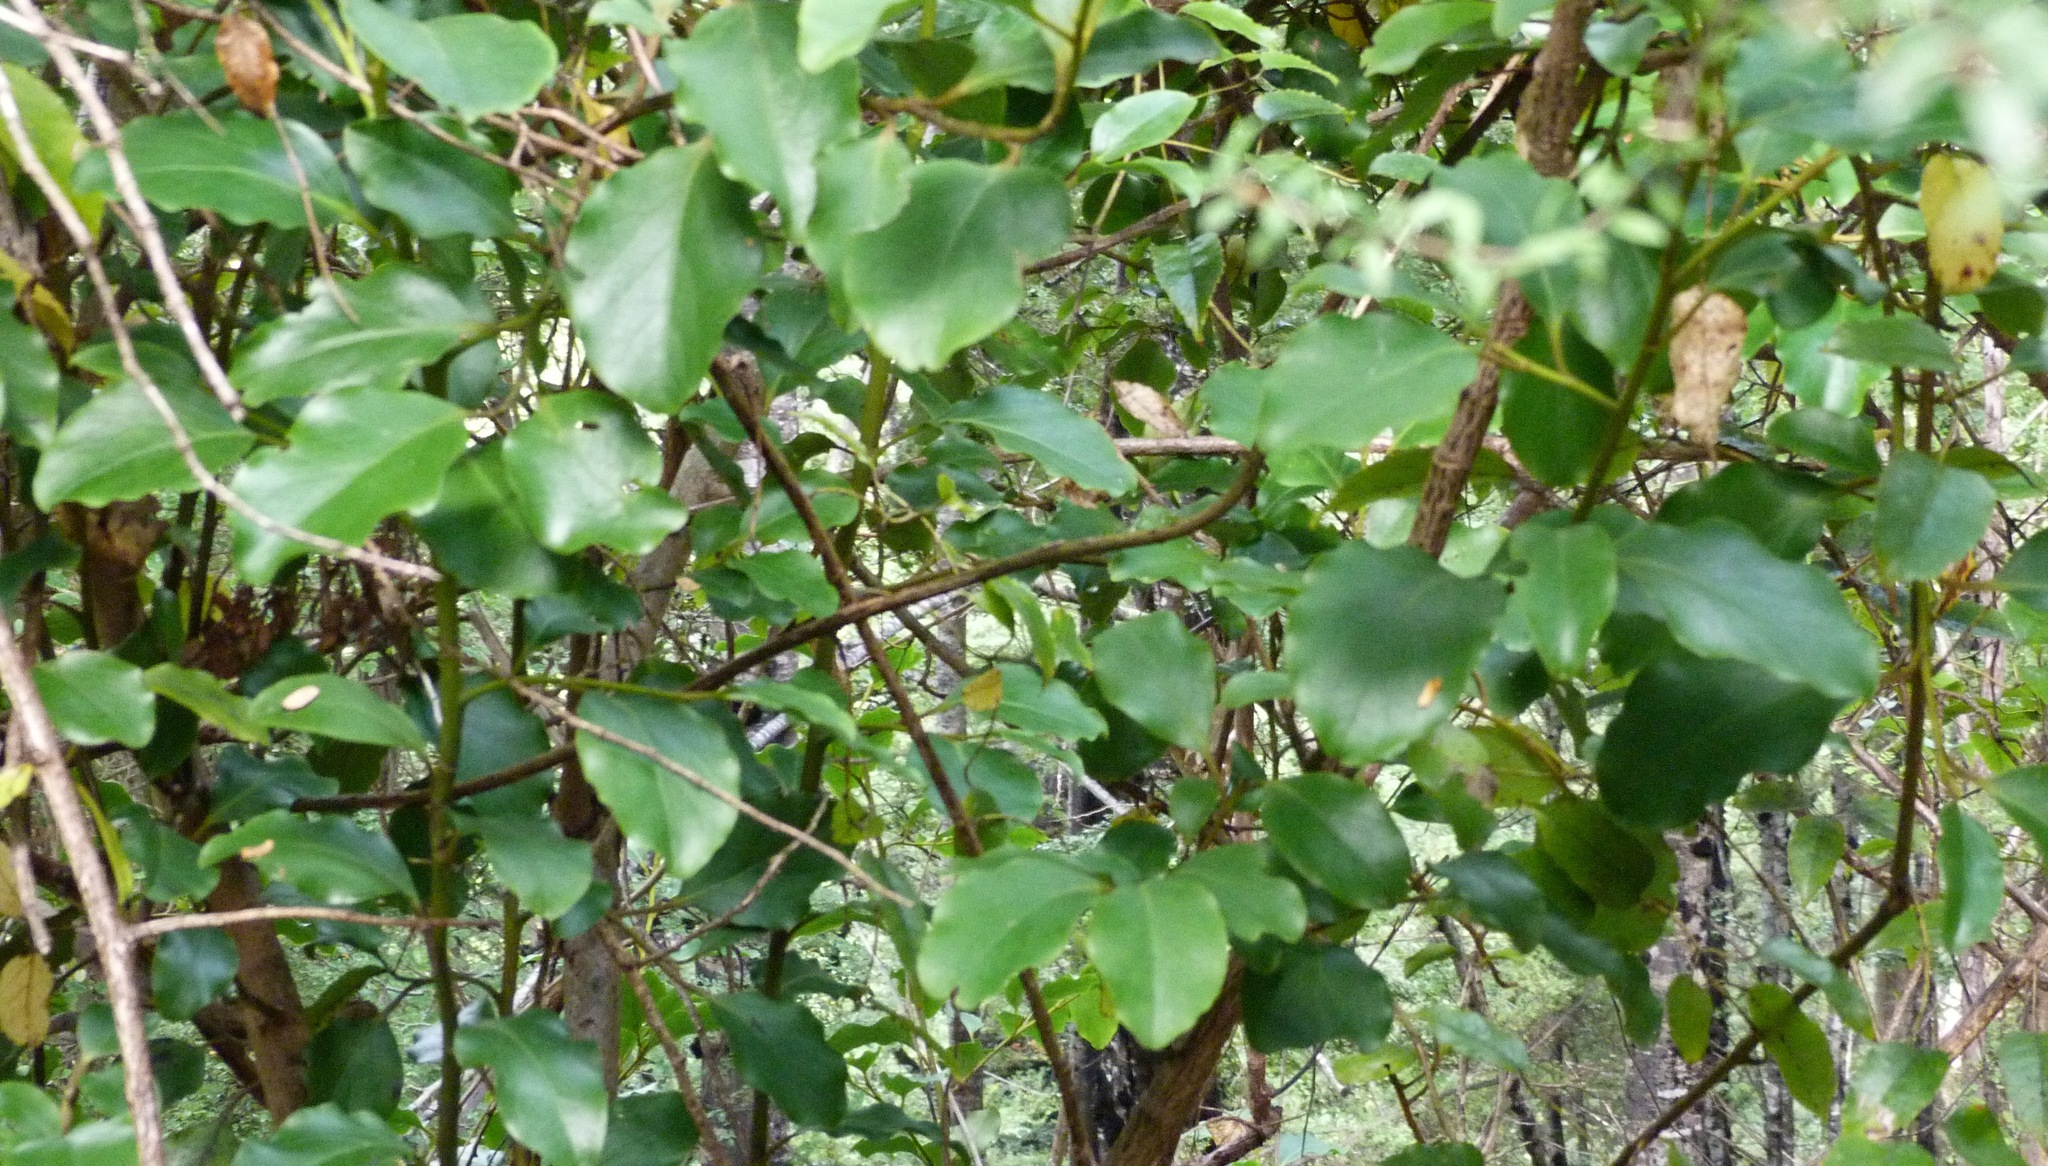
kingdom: Plantae
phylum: Tracheophyta
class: Magnoliopsida
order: Apiales
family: Griseliniaceae
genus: Griselinia
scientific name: Griselinia littoralis
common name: New zealand broadleaf
